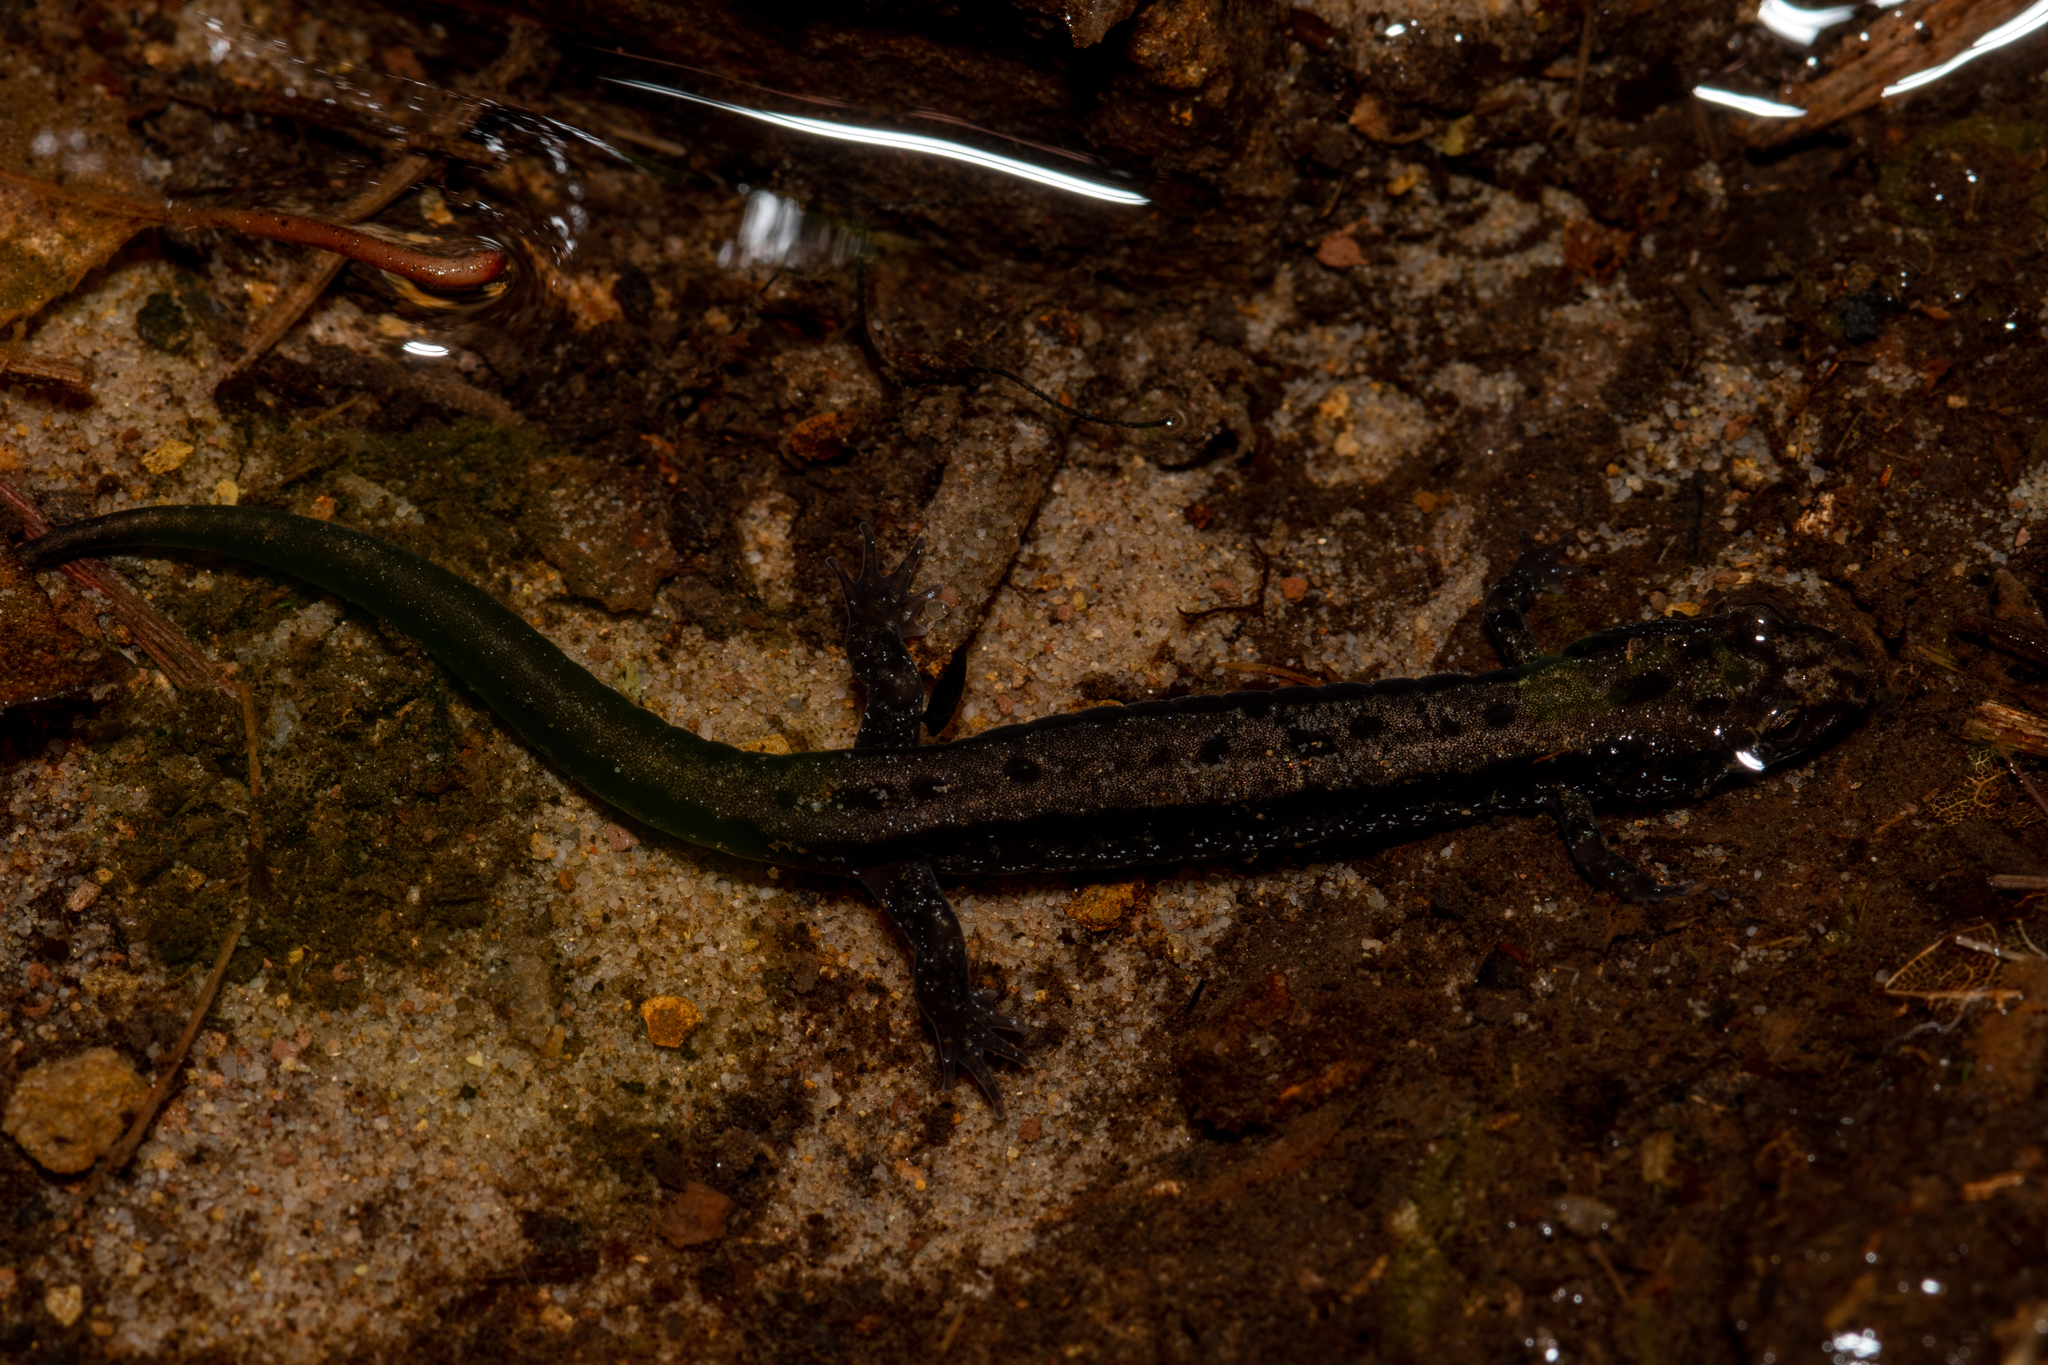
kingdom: Animalia
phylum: Chordata
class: Amphibia
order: Caudata
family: Plethodontidae
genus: Desmognathus
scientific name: Desmognathus ochrophaeus
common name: Allegheny mountain dusky salamander
